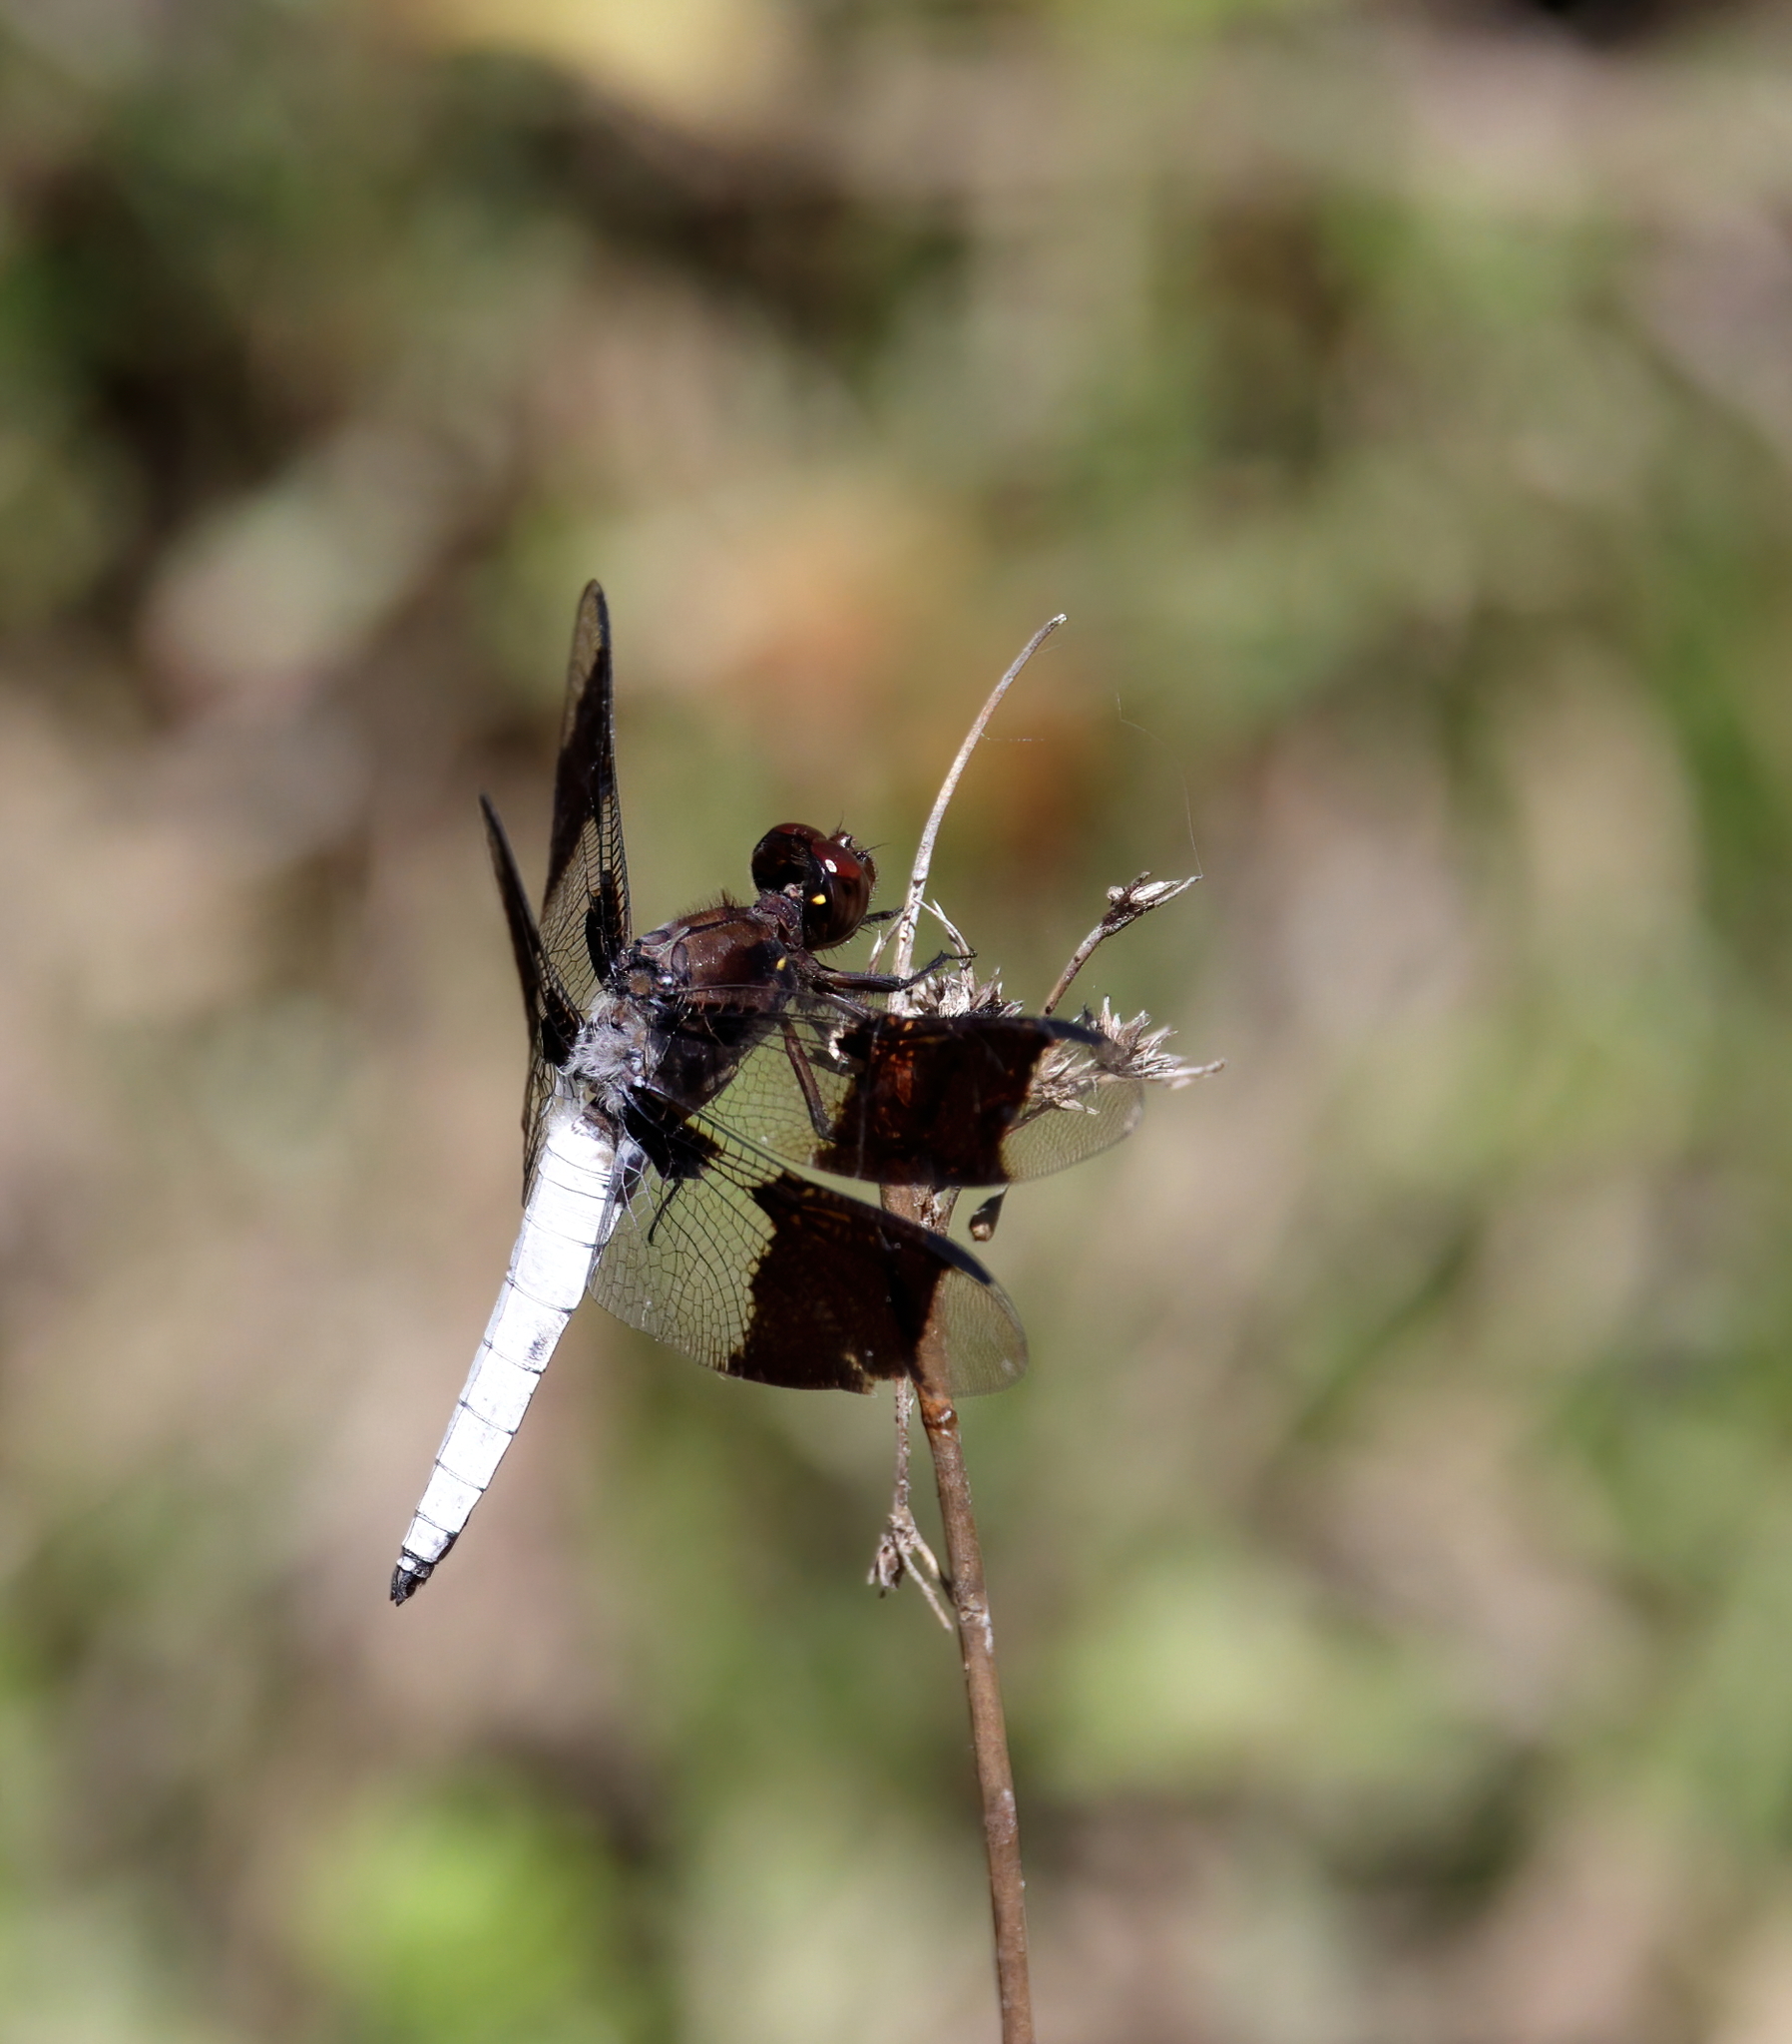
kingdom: Animalia
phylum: Arthropoda
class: Insecta
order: Odonata
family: Libellulidae
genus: Plathemis
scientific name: Plathemis lydia
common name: Common whitetail
